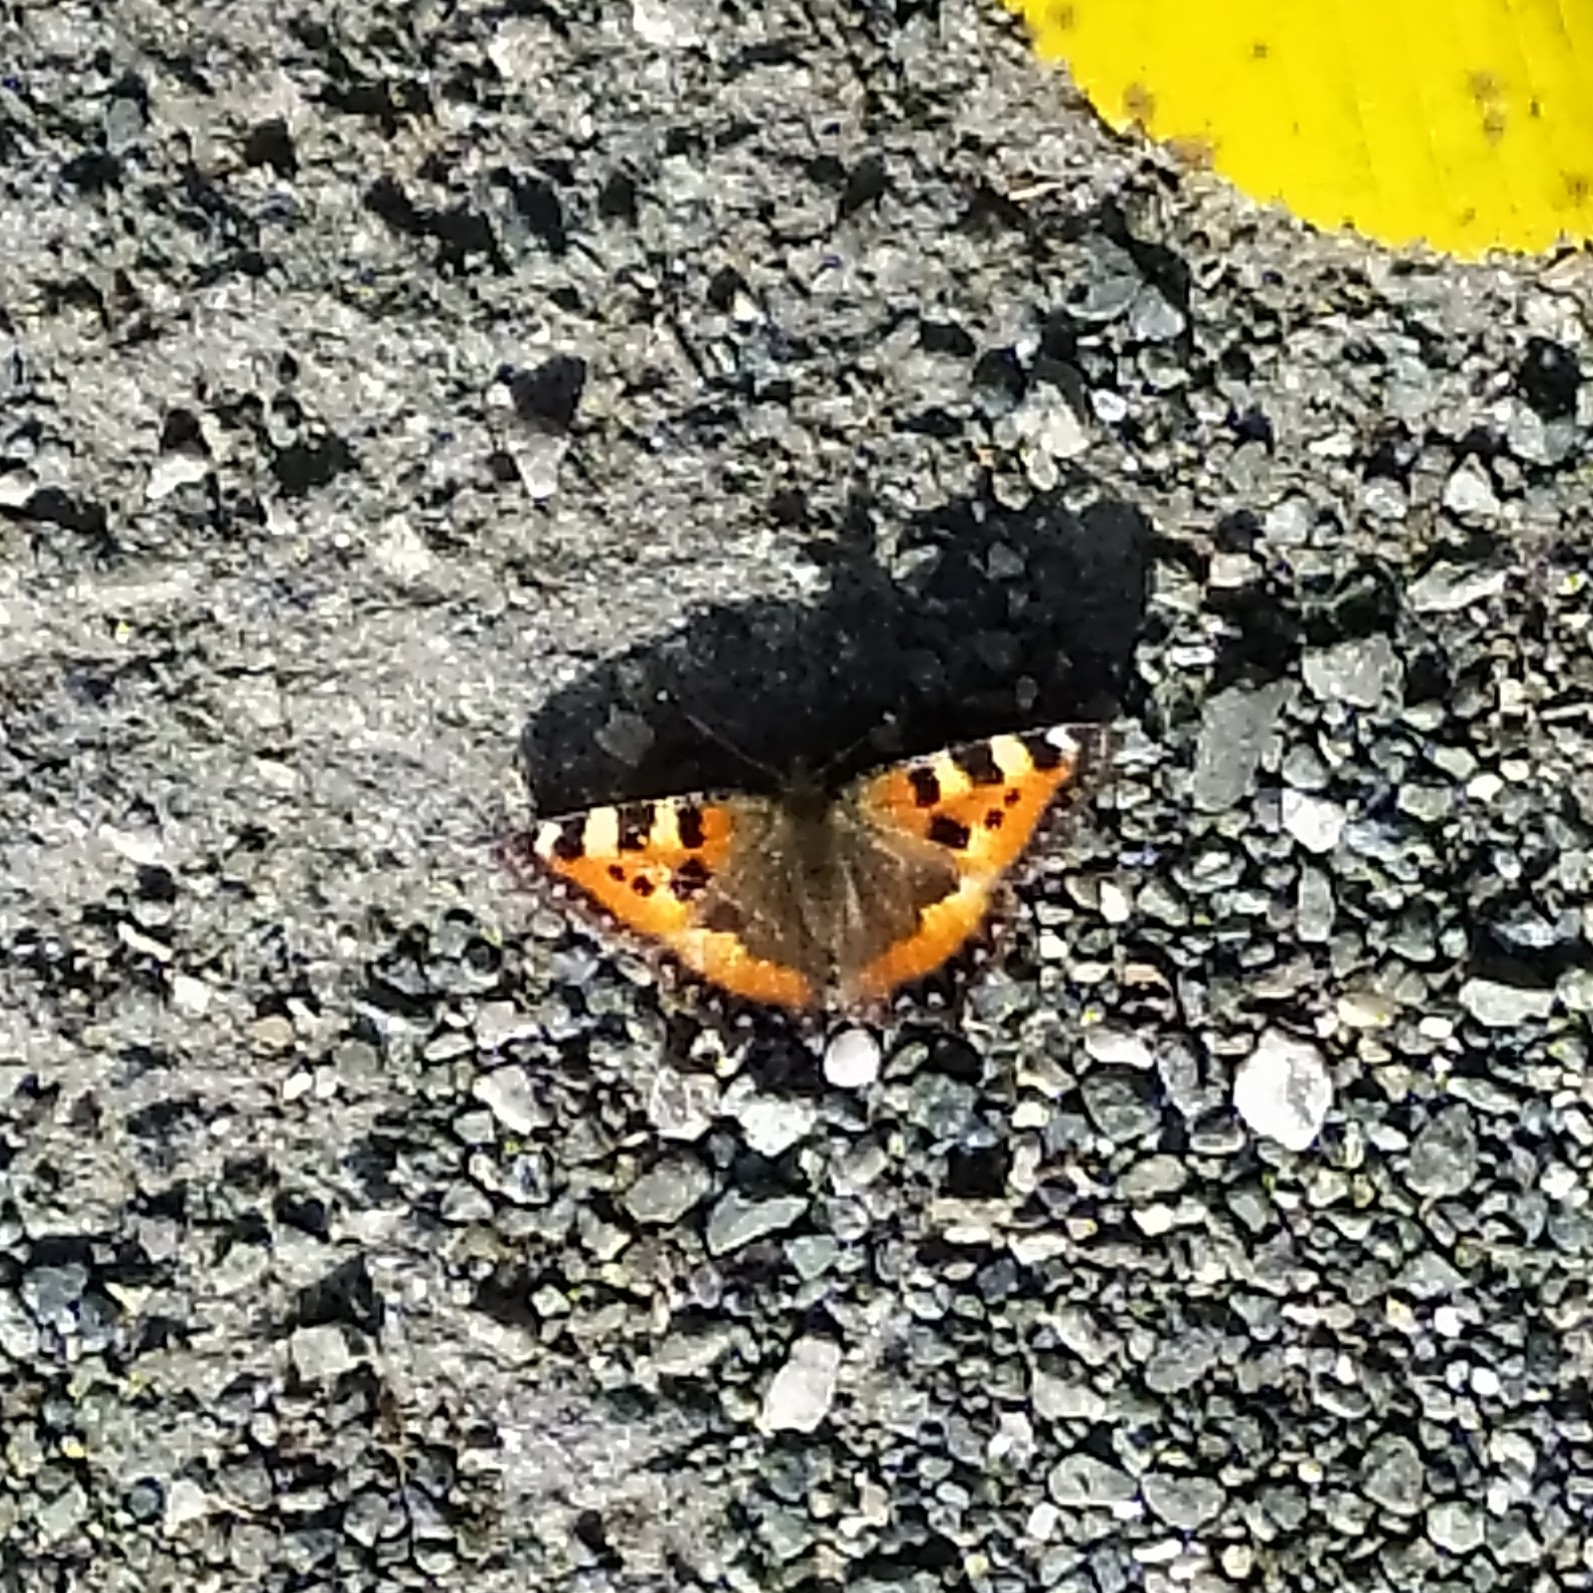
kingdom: Animalia
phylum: Arthropoda
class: Insecta
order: Lepidoptera
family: Nymphalidae
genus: Aglais
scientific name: Aglais urticae
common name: Small tortoiseshell
